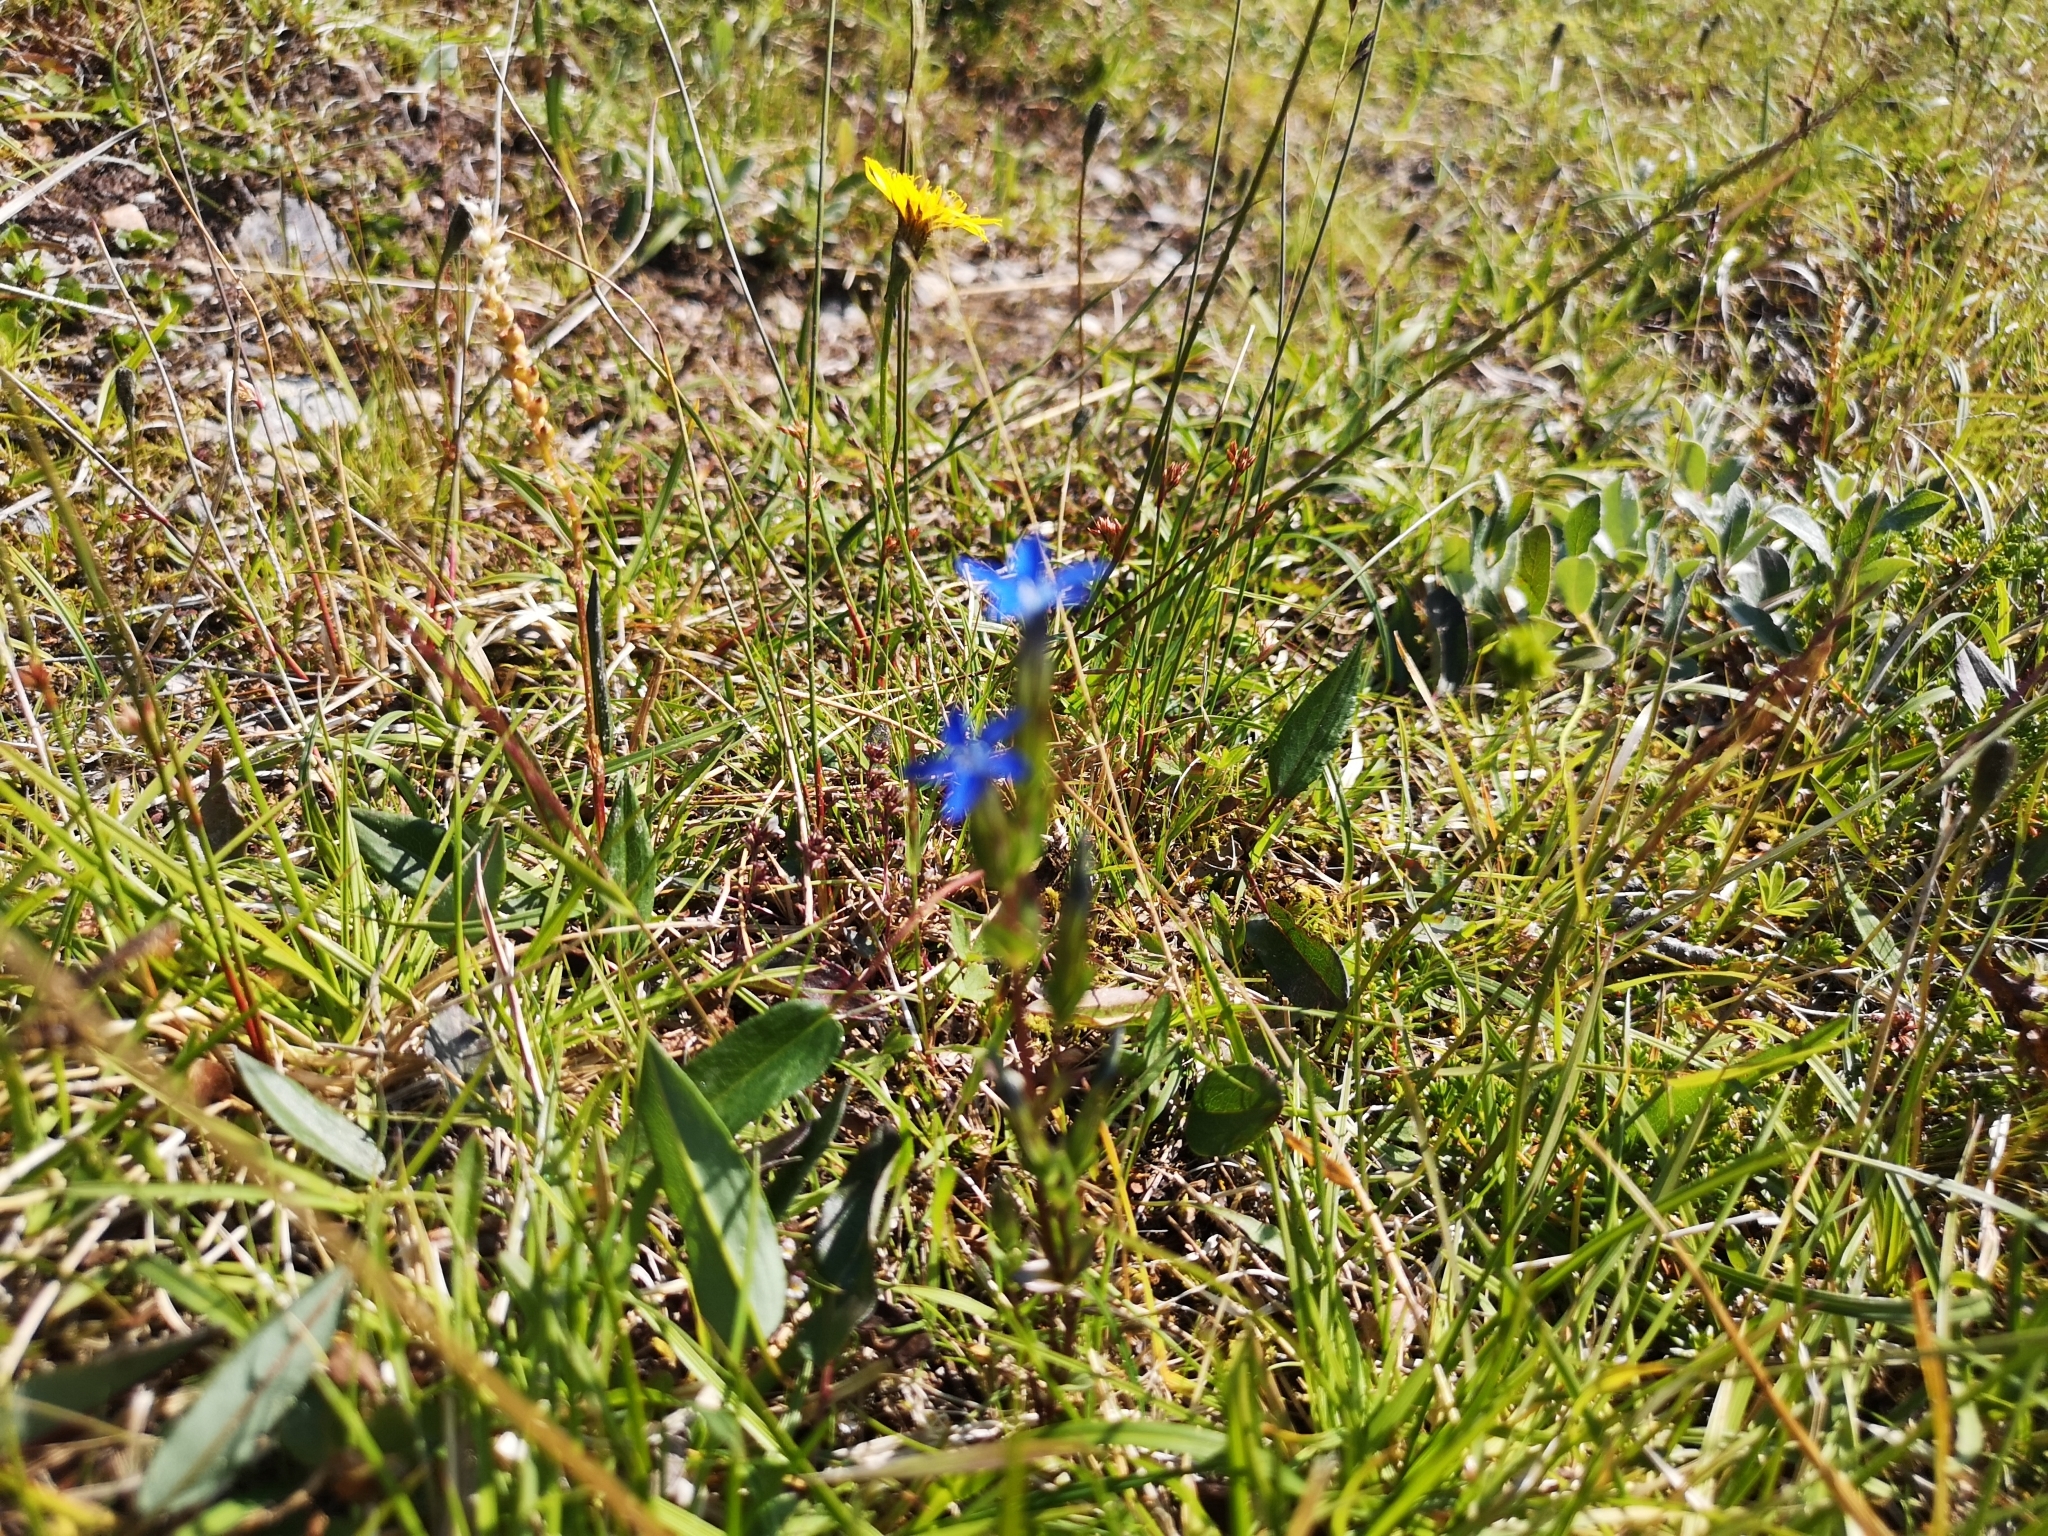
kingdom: Plantae
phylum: Tracheophyta
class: Magnoliopsida
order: Gentianales
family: Gentianaceae
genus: Gentiana
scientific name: Gentiana nivalis
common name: Alpine gentian
